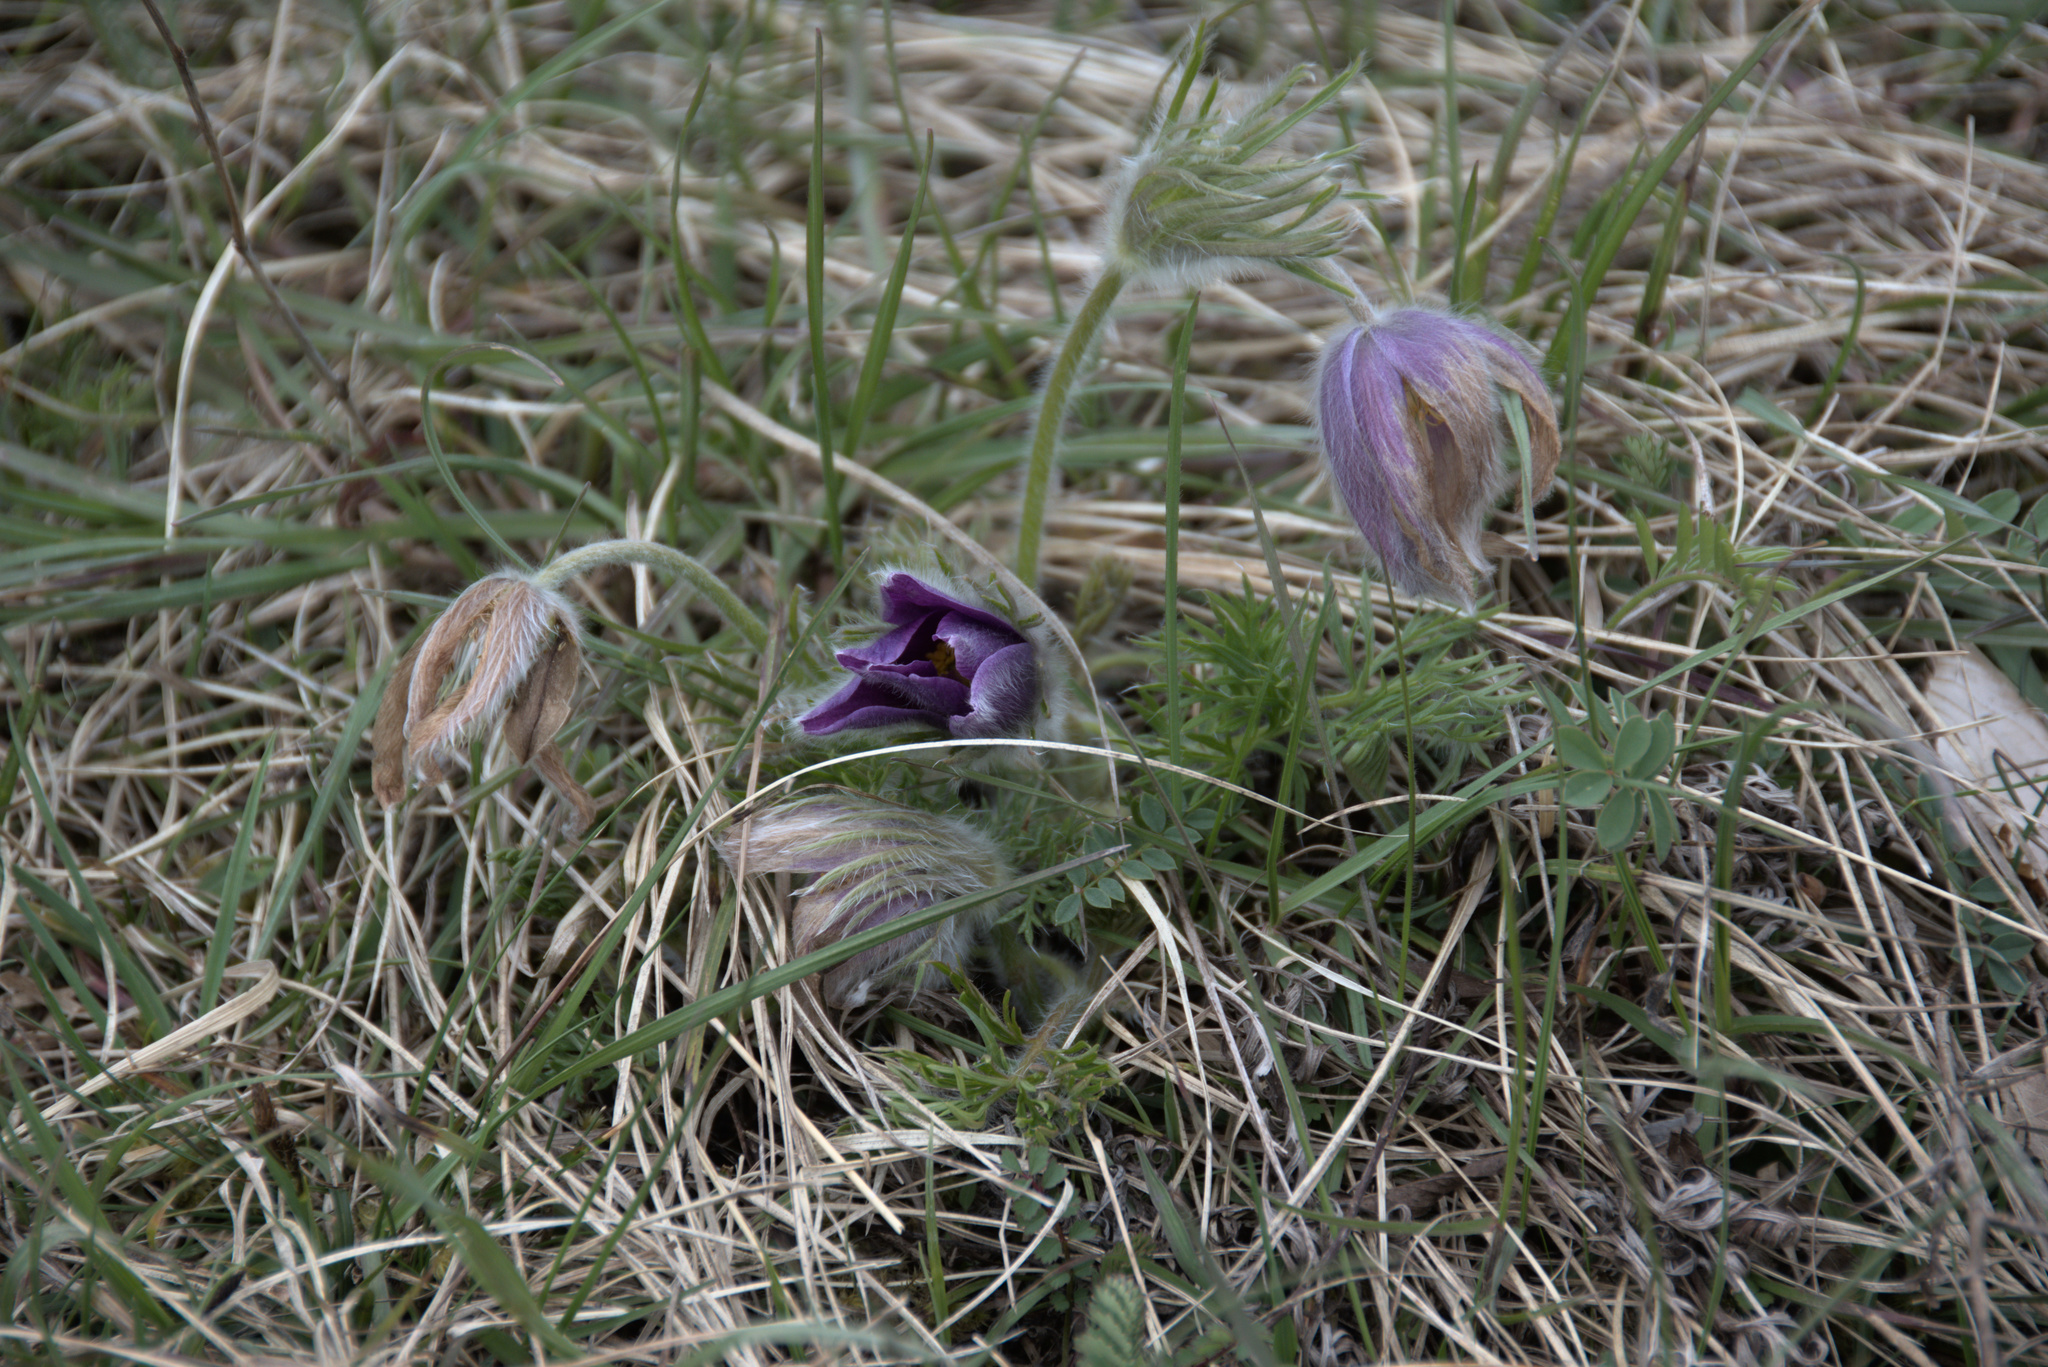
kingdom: Plantae
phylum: Tracheophyta
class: Magnoliopsida
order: Ranunculales
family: Ranunculaceae
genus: Pulsatilla
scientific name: Pulsatilla vulgaris
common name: Pasqueflower
